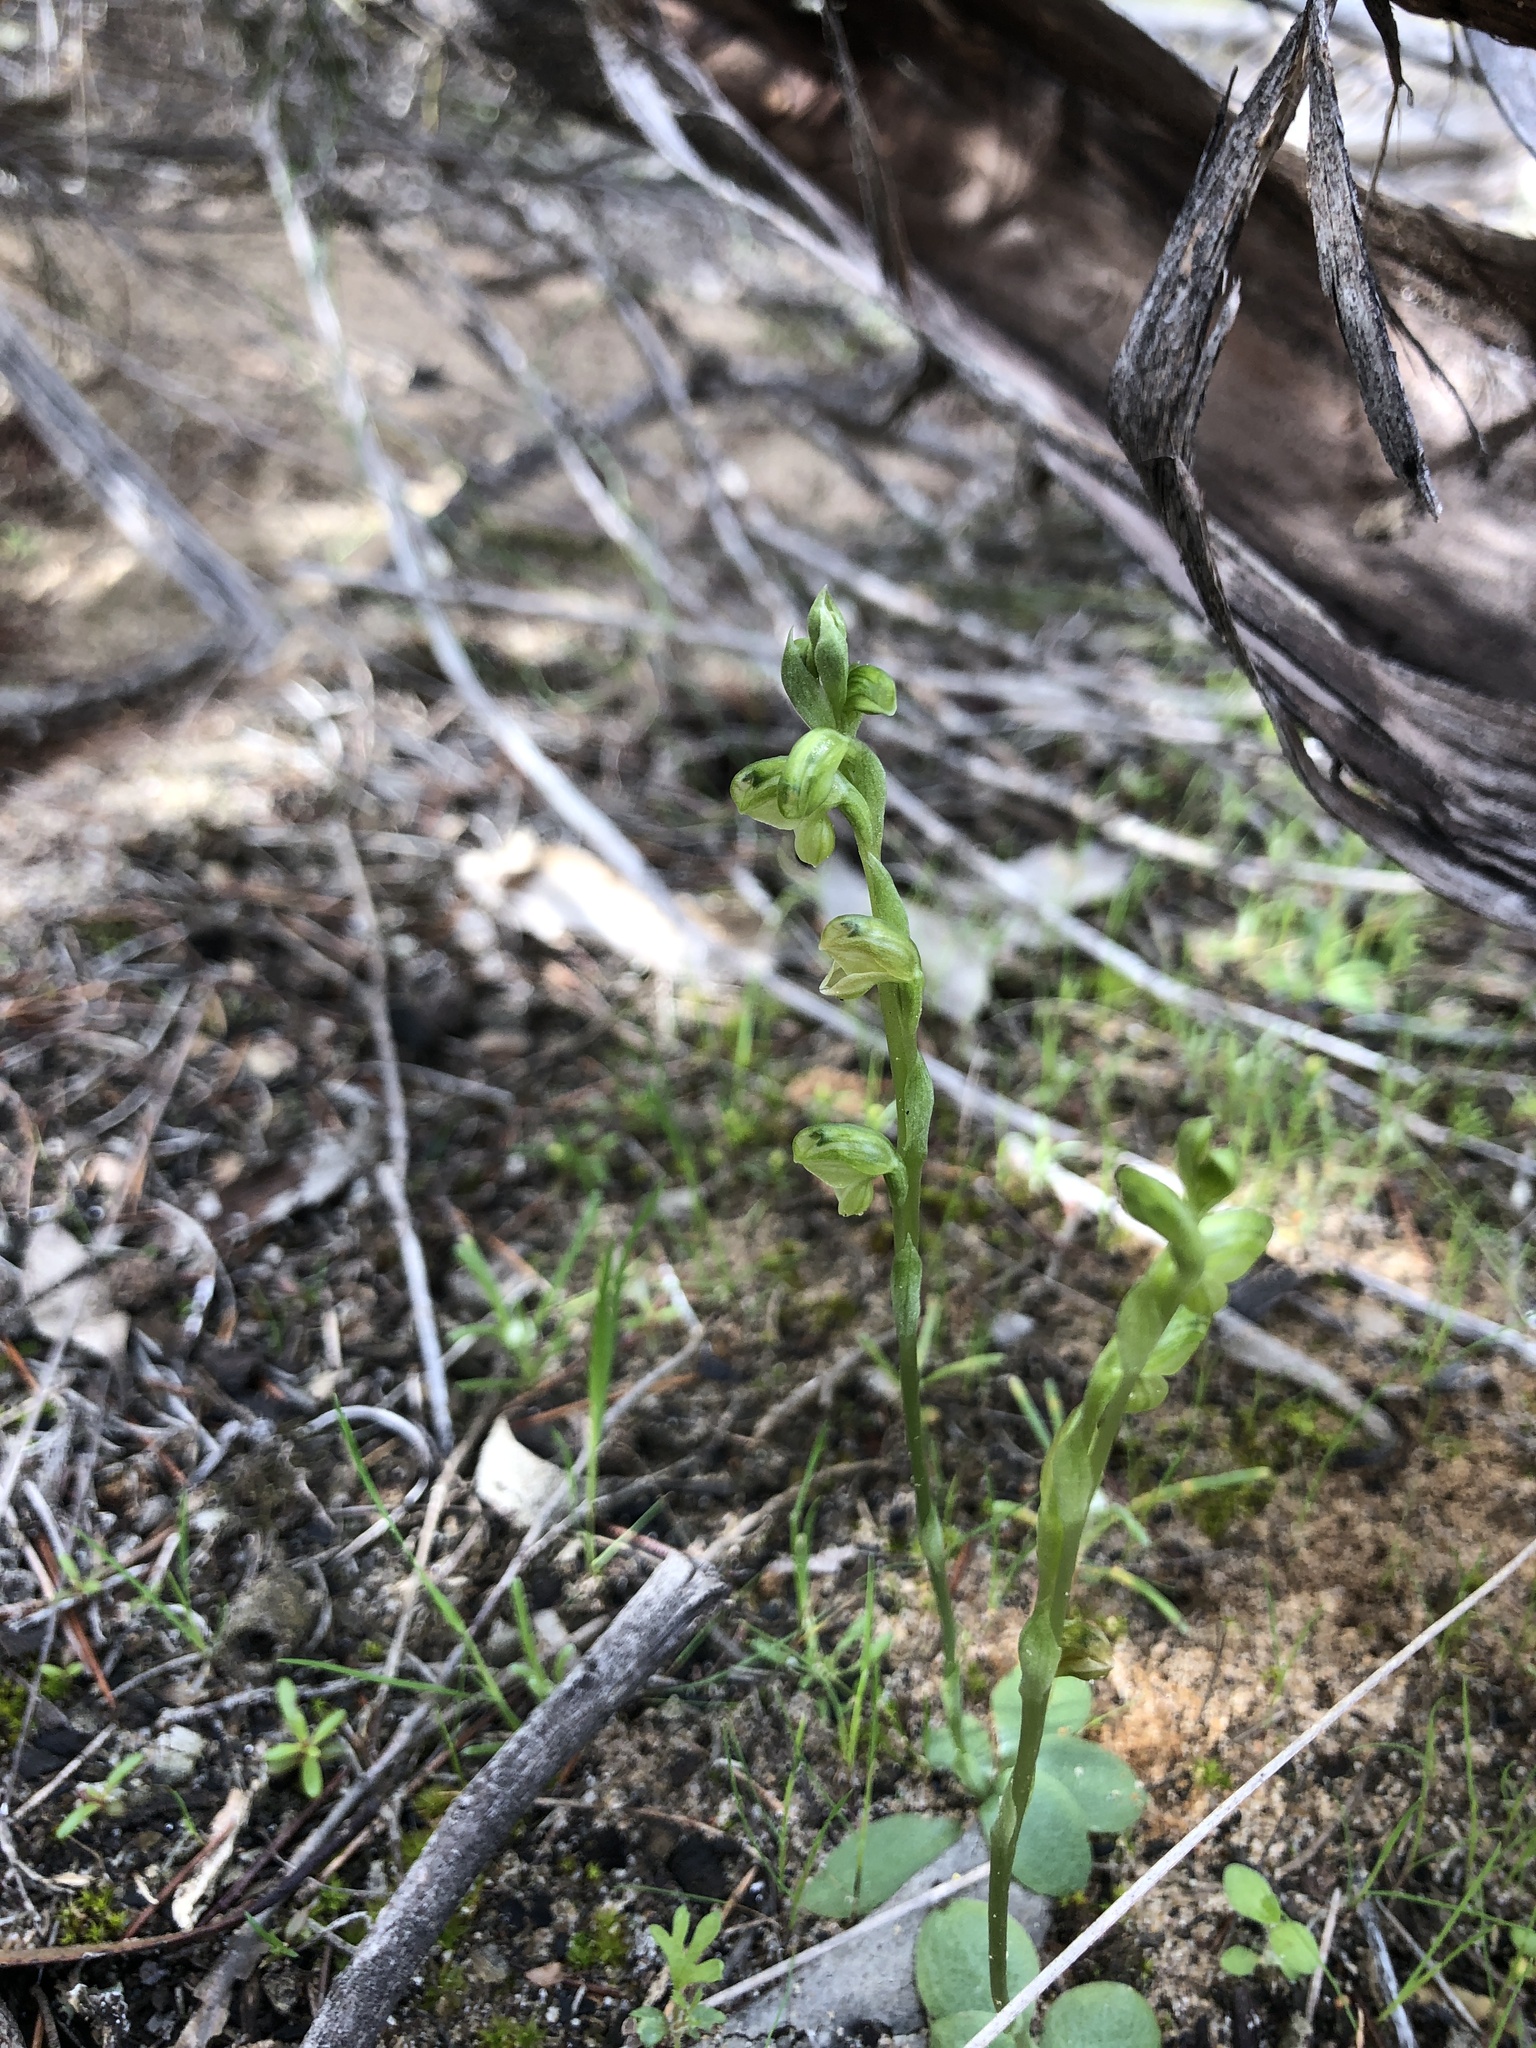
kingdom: Plantae
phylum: Tracheophyta
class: Liliopsida
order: Asparagales
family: Orchidaceae
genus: Pterostylis
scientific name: Pterostylis mutica
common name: Midget greenhood
